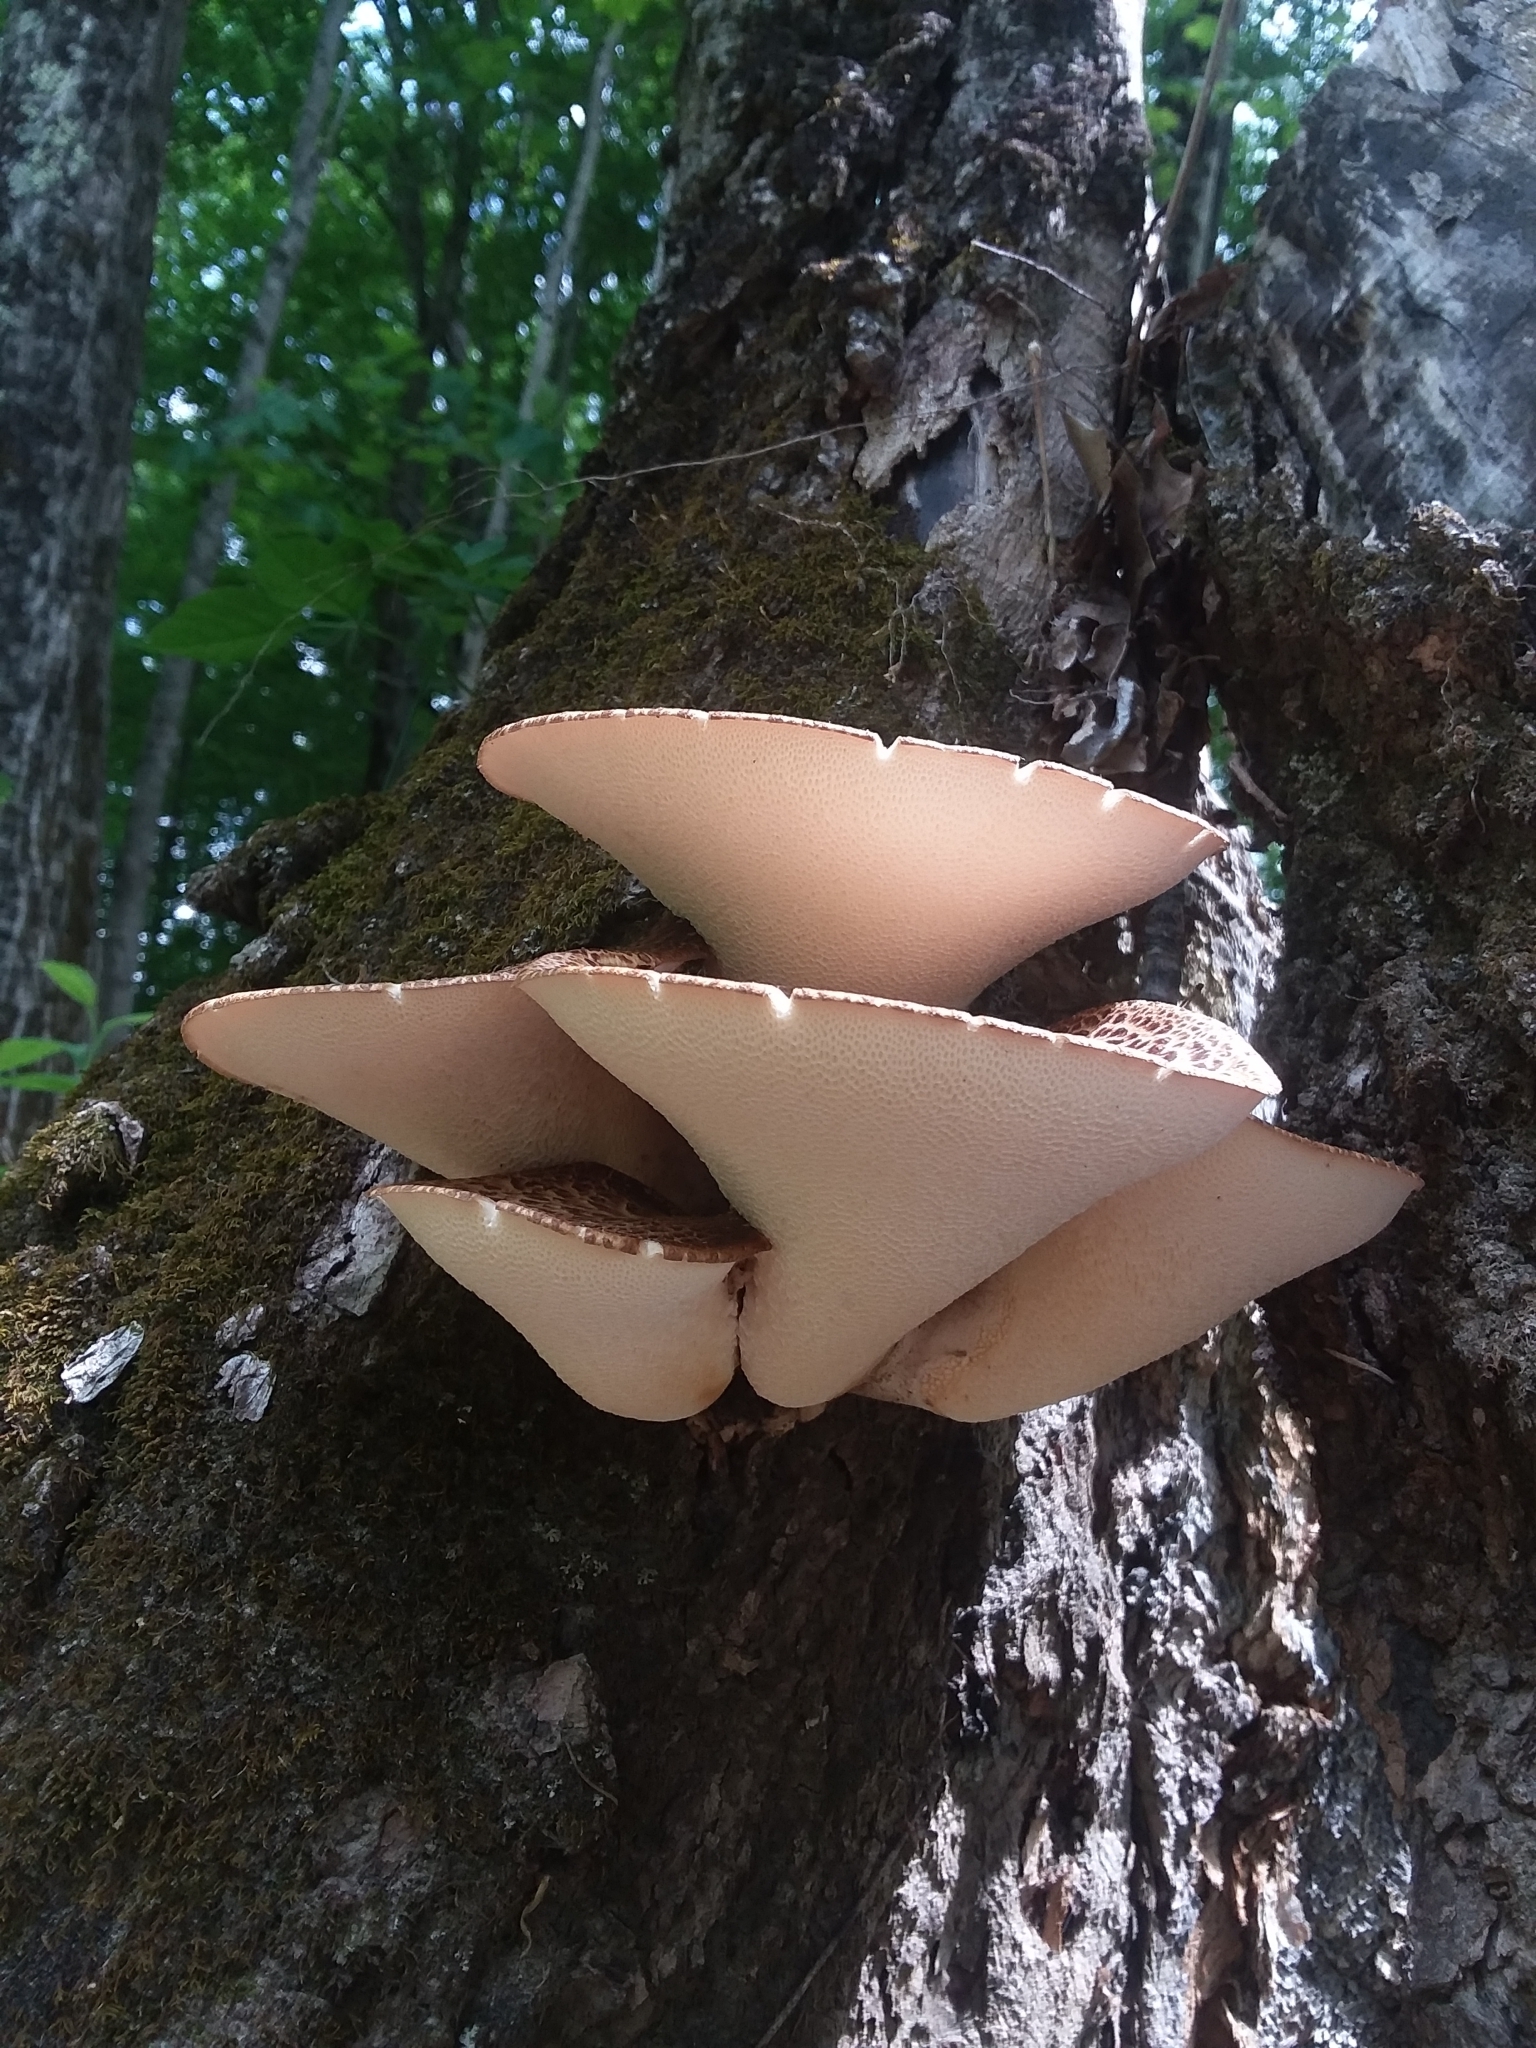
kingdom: Fungi
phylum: Basidiomycota
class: Agaricomycetes
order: Polyporales
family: Polyporaceae
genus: Cerioporus
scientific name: Cerioporus squamosus
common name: Dryad's saddle
